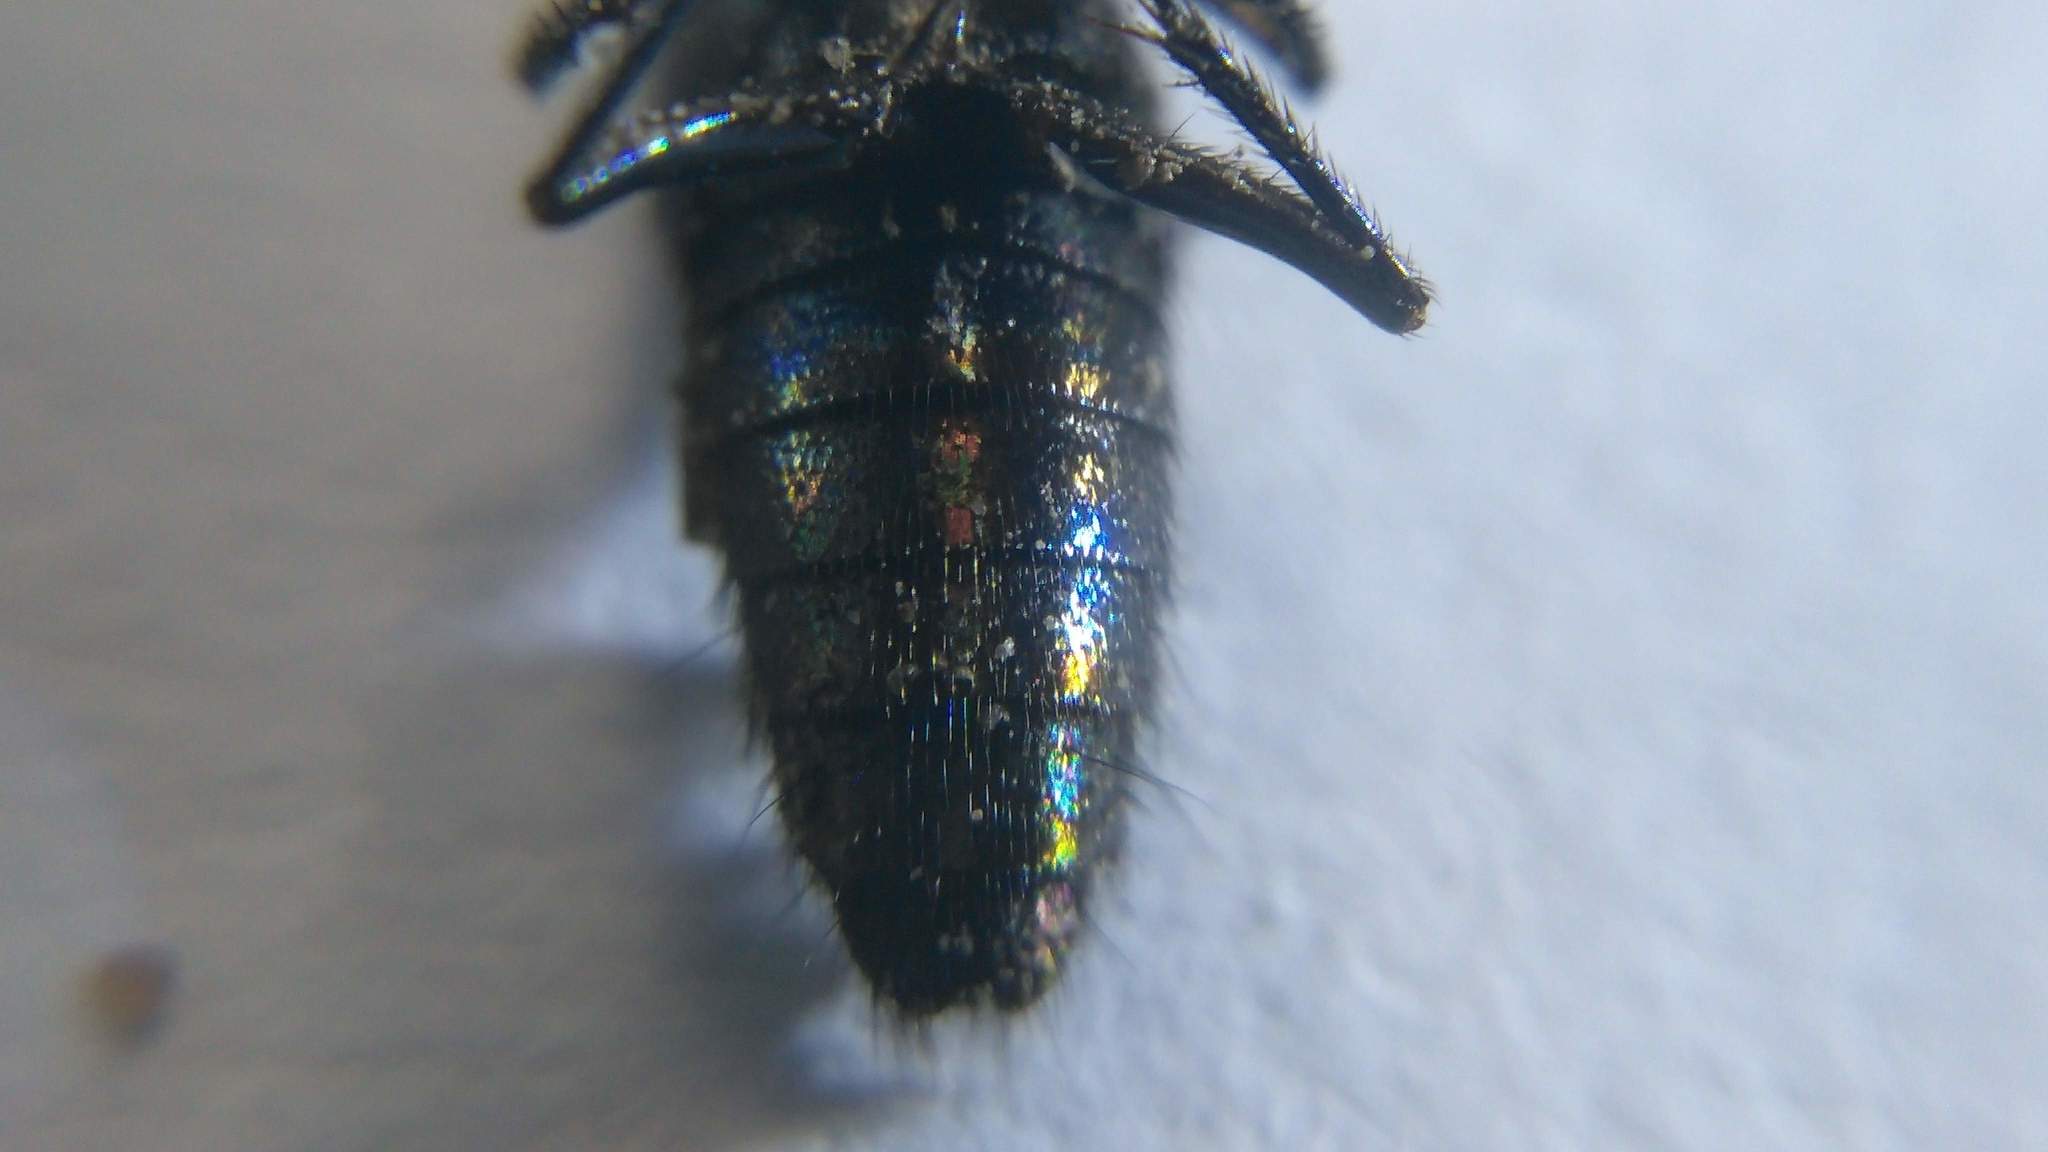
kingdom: Animalia
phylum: Arthropoda
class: Insecta
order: Coleoptera
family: Staphylinidae
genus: Philonthus
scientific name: Philonthus caeruleipennis
